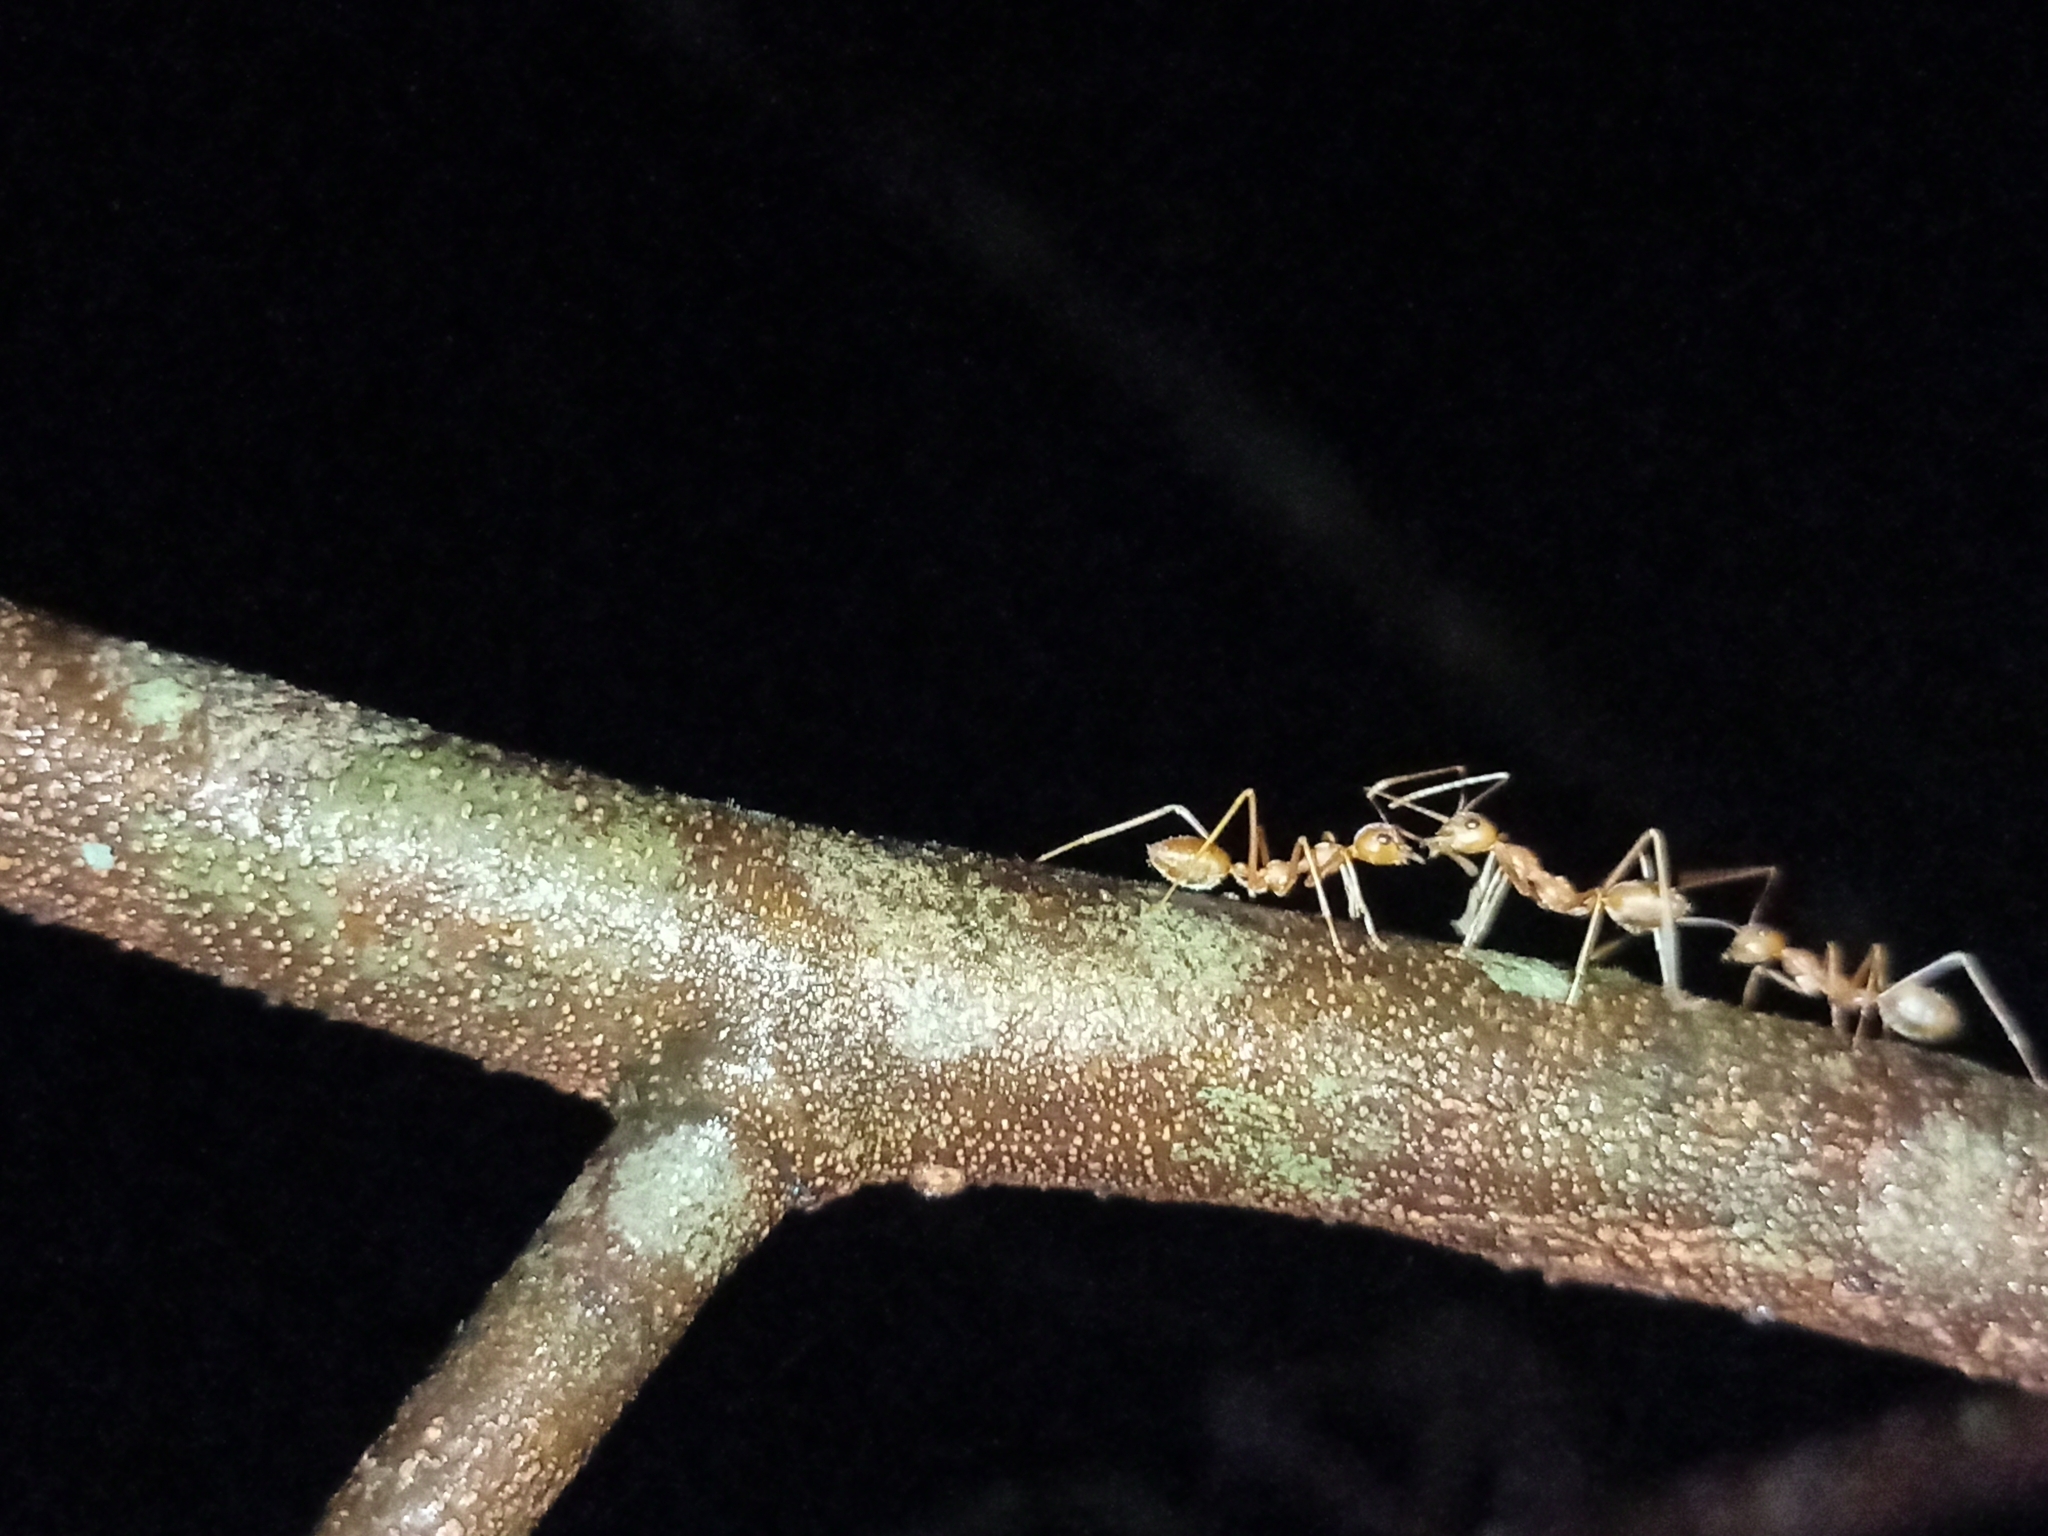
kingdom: Animalia
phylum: Arthropoda
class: Insecta
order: Hymenoptera
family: Formicidae
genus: Oecophylla
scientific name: Oecophylla smaragdina
